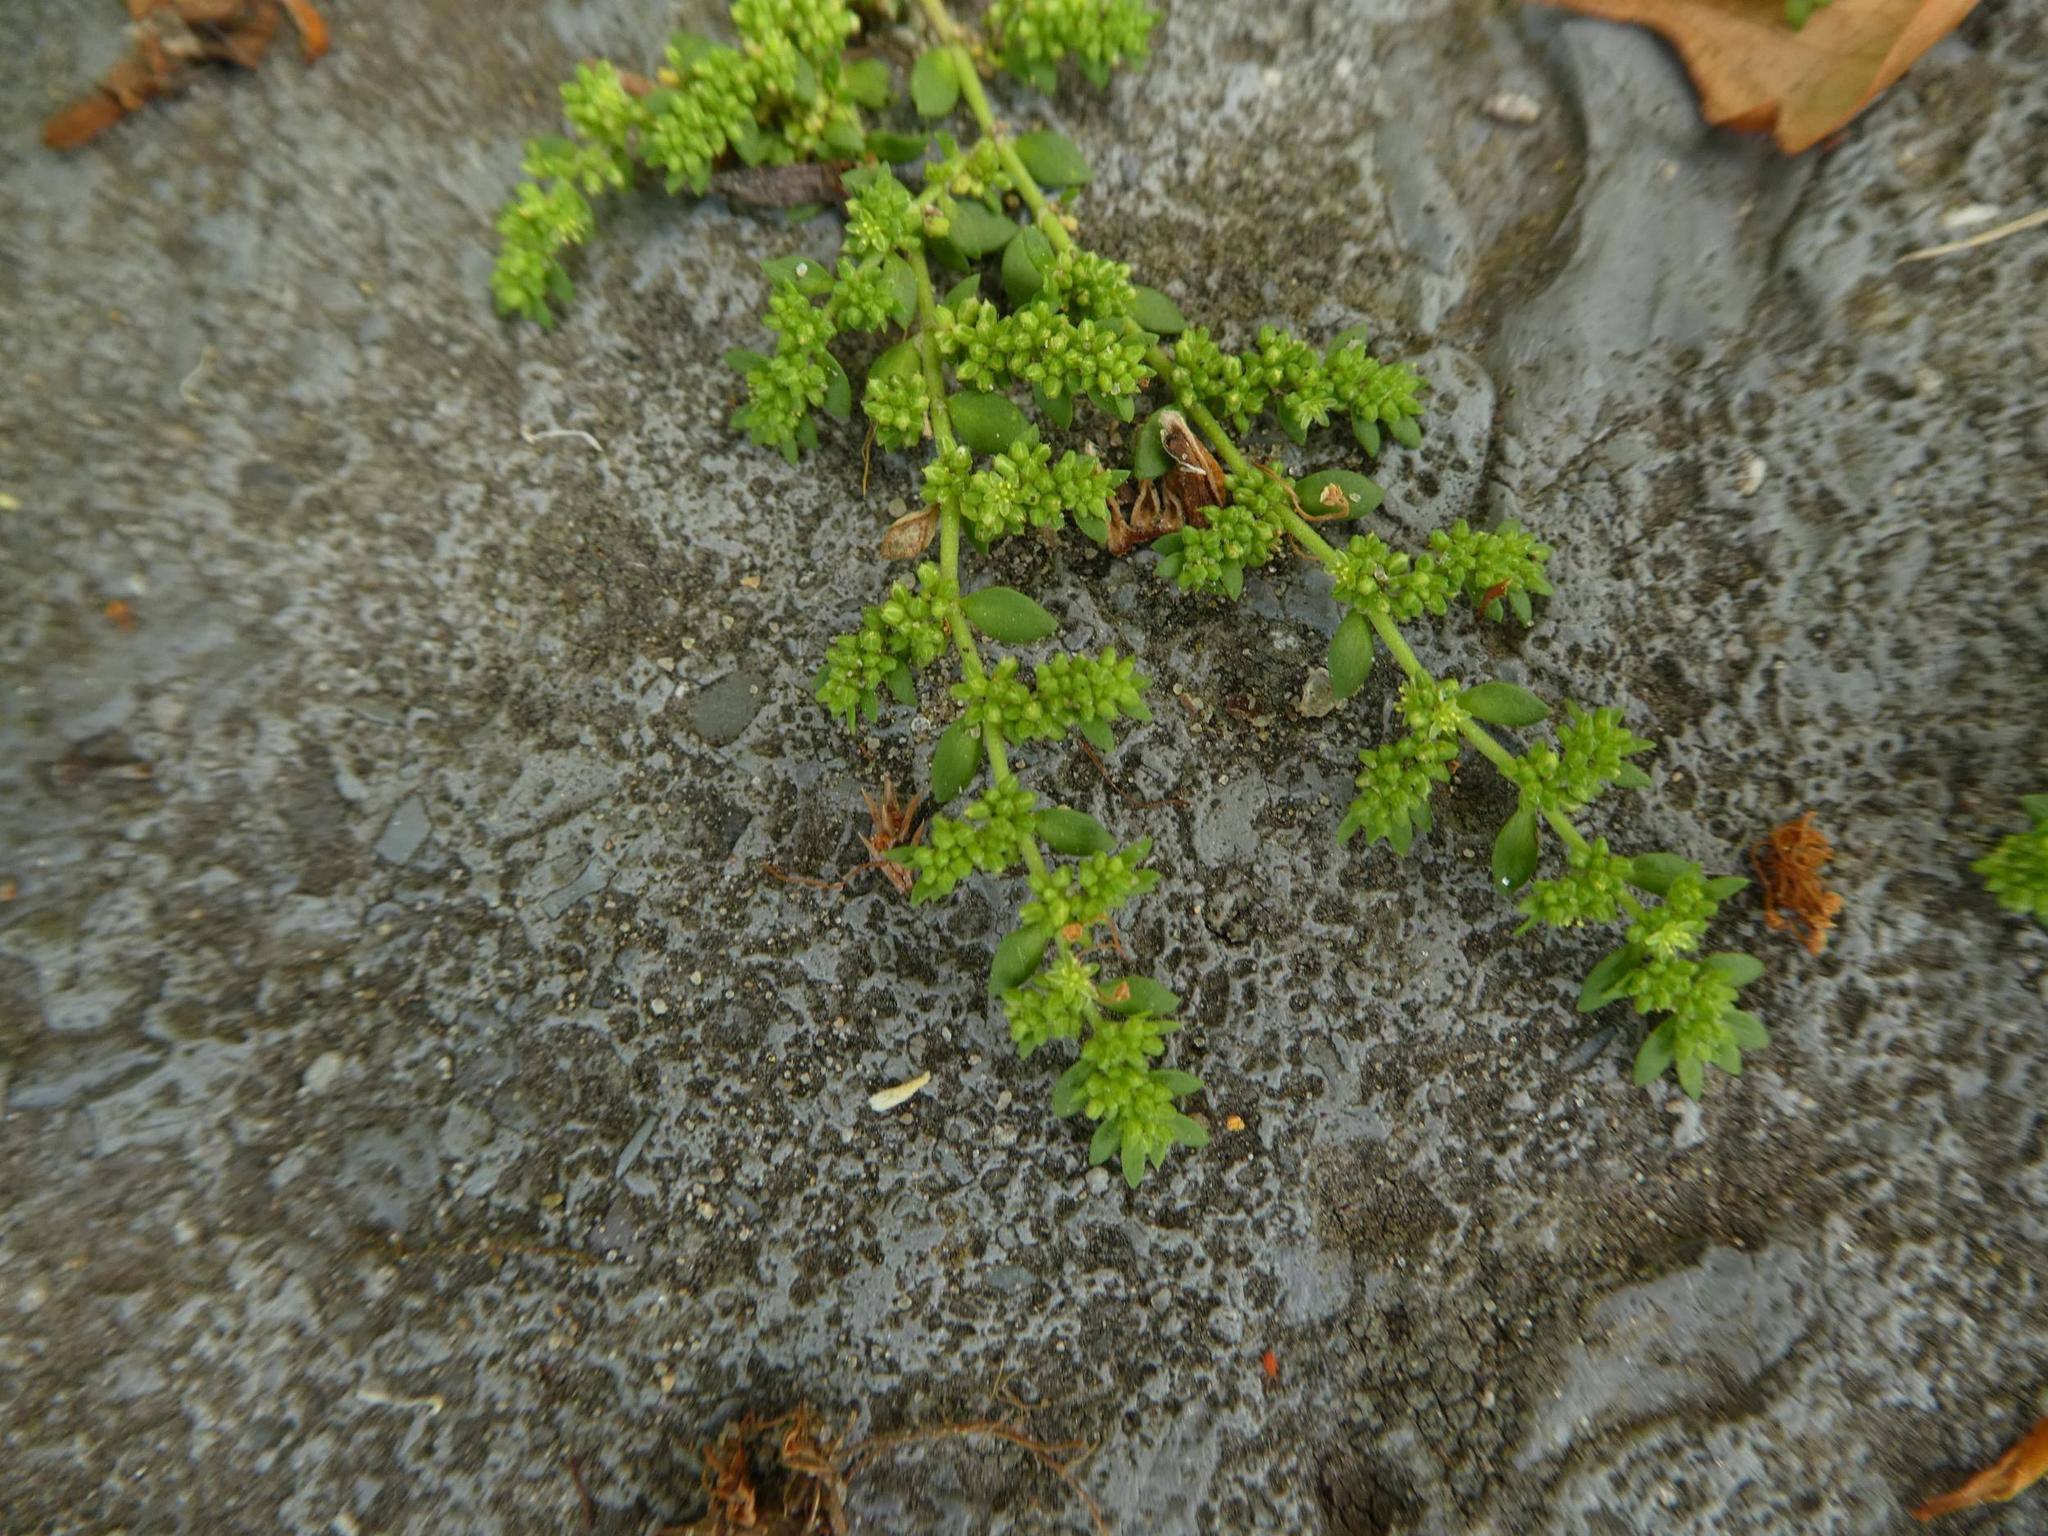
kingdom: Plantae
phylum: Tracheophyta
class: Magnoliopsida
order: Caryophyllales
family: Caryophyllaceae
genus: Herniaria
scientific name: Herniaria glabra
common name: Smooth rupturewort
